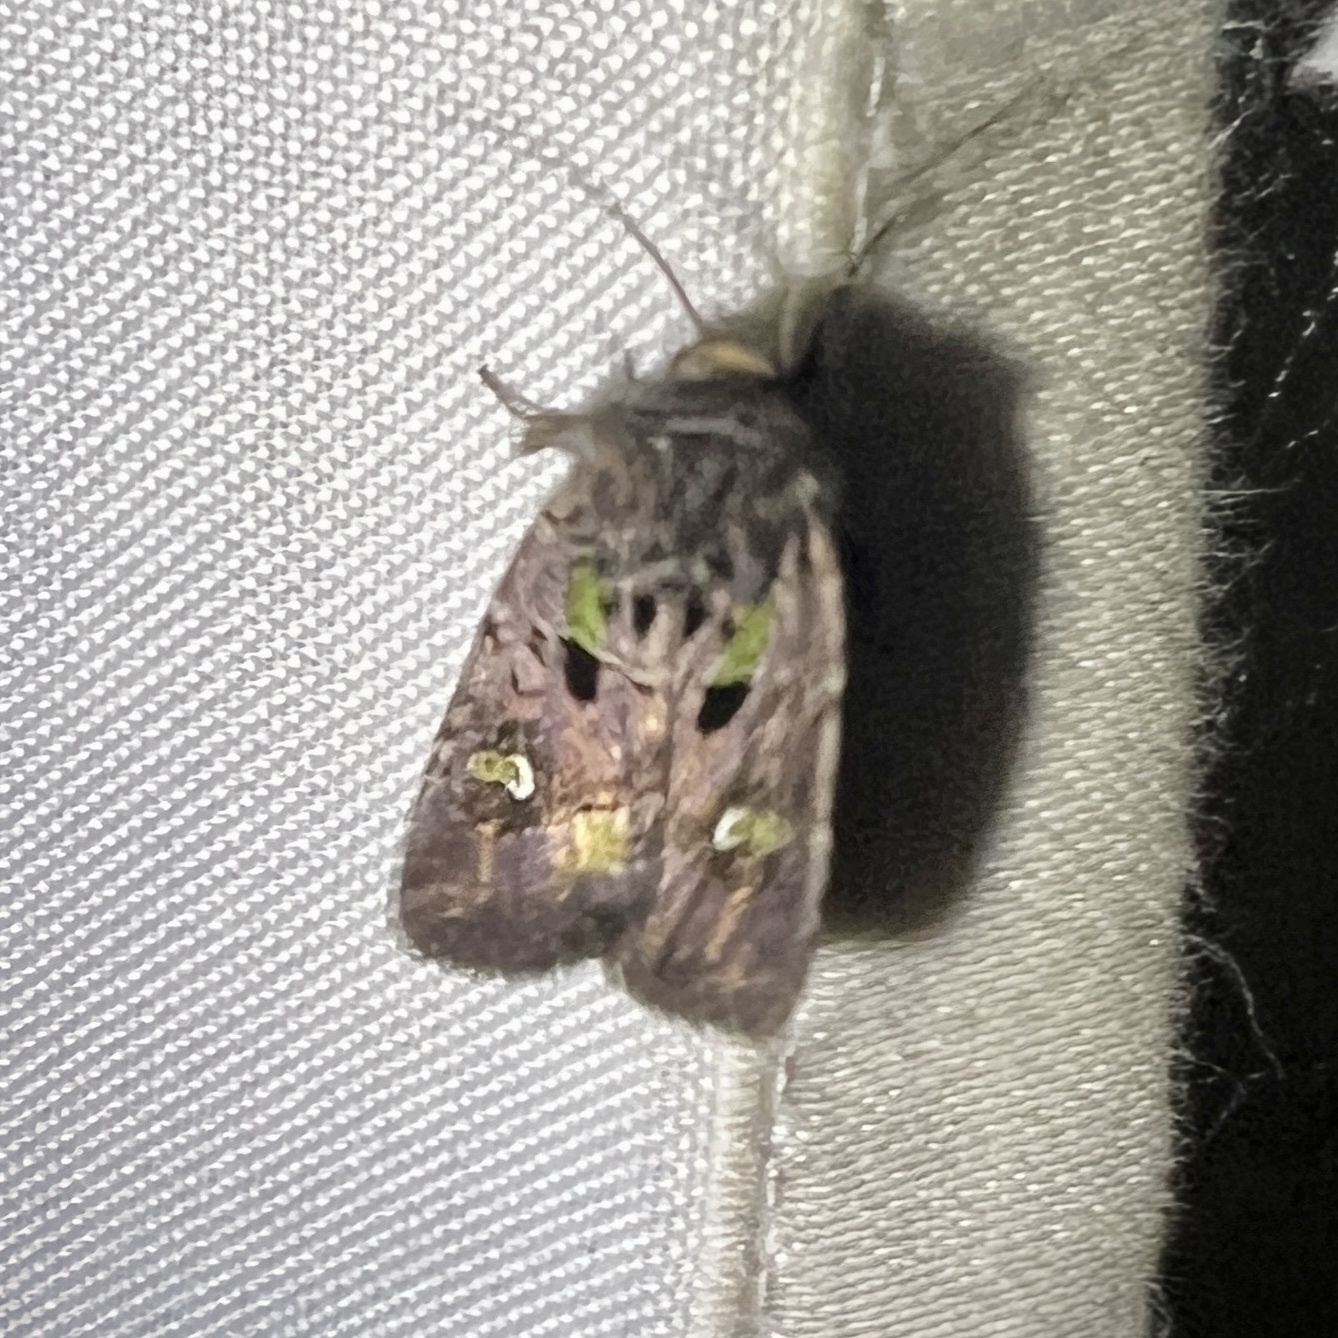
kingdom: Animalia
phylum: Arthropoda
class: Insecta
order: Lepidoptera
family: Noctuidae
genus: Lacinipolia
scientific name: Lacinipolia renigera
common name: Kidney-spotted minor
